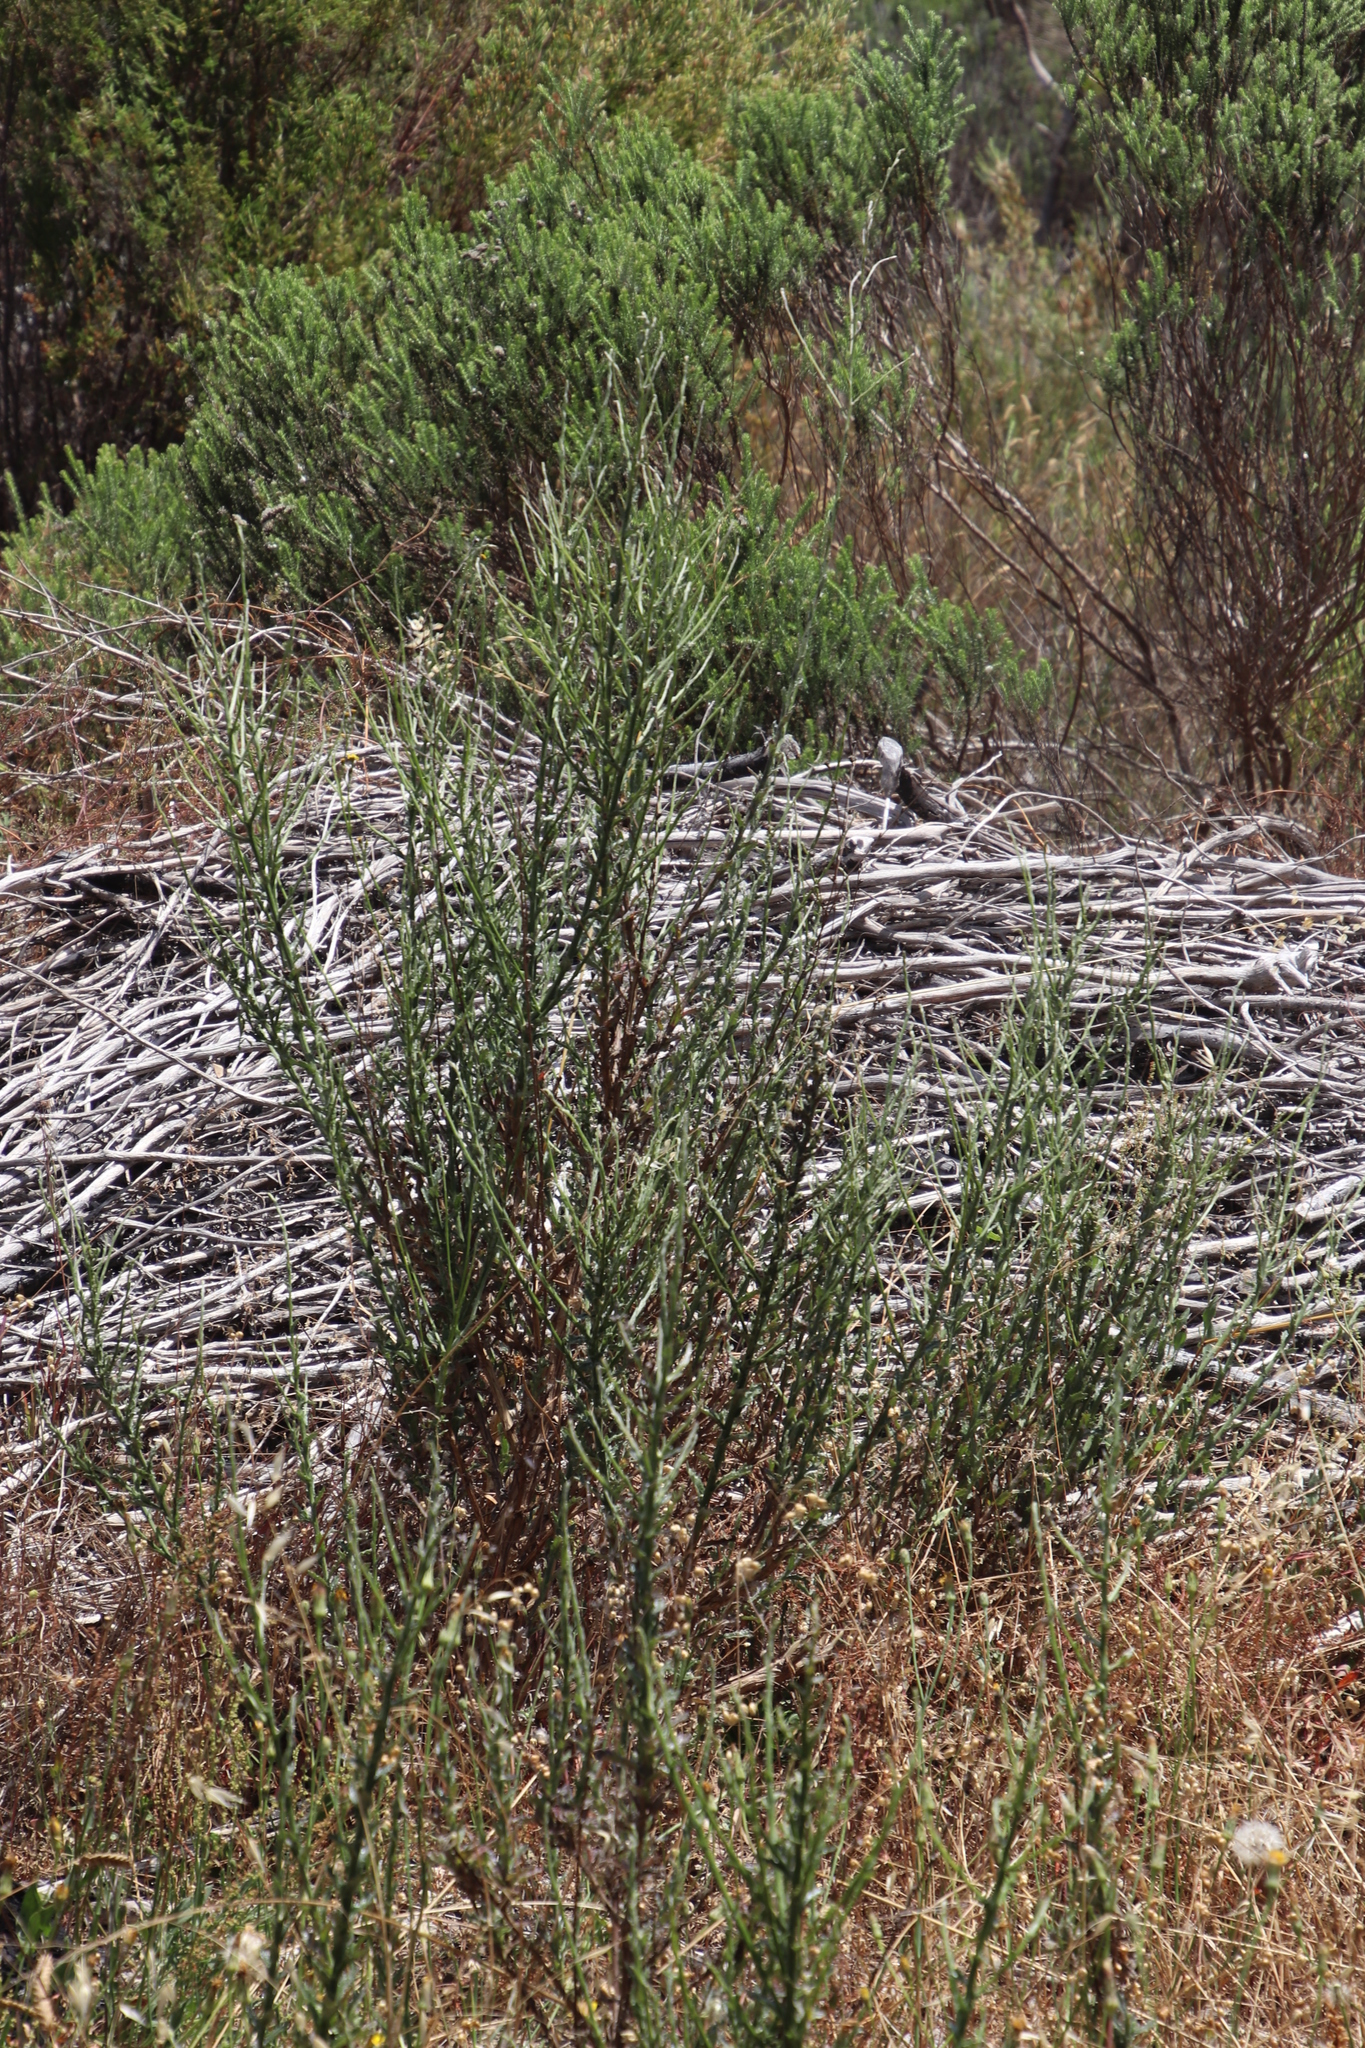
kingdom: Plantae
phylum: Tracheophyta
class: Magnoliopsida
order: Asterales
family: Asteraceae
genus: Senecio
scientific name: Senecio pubigerus
